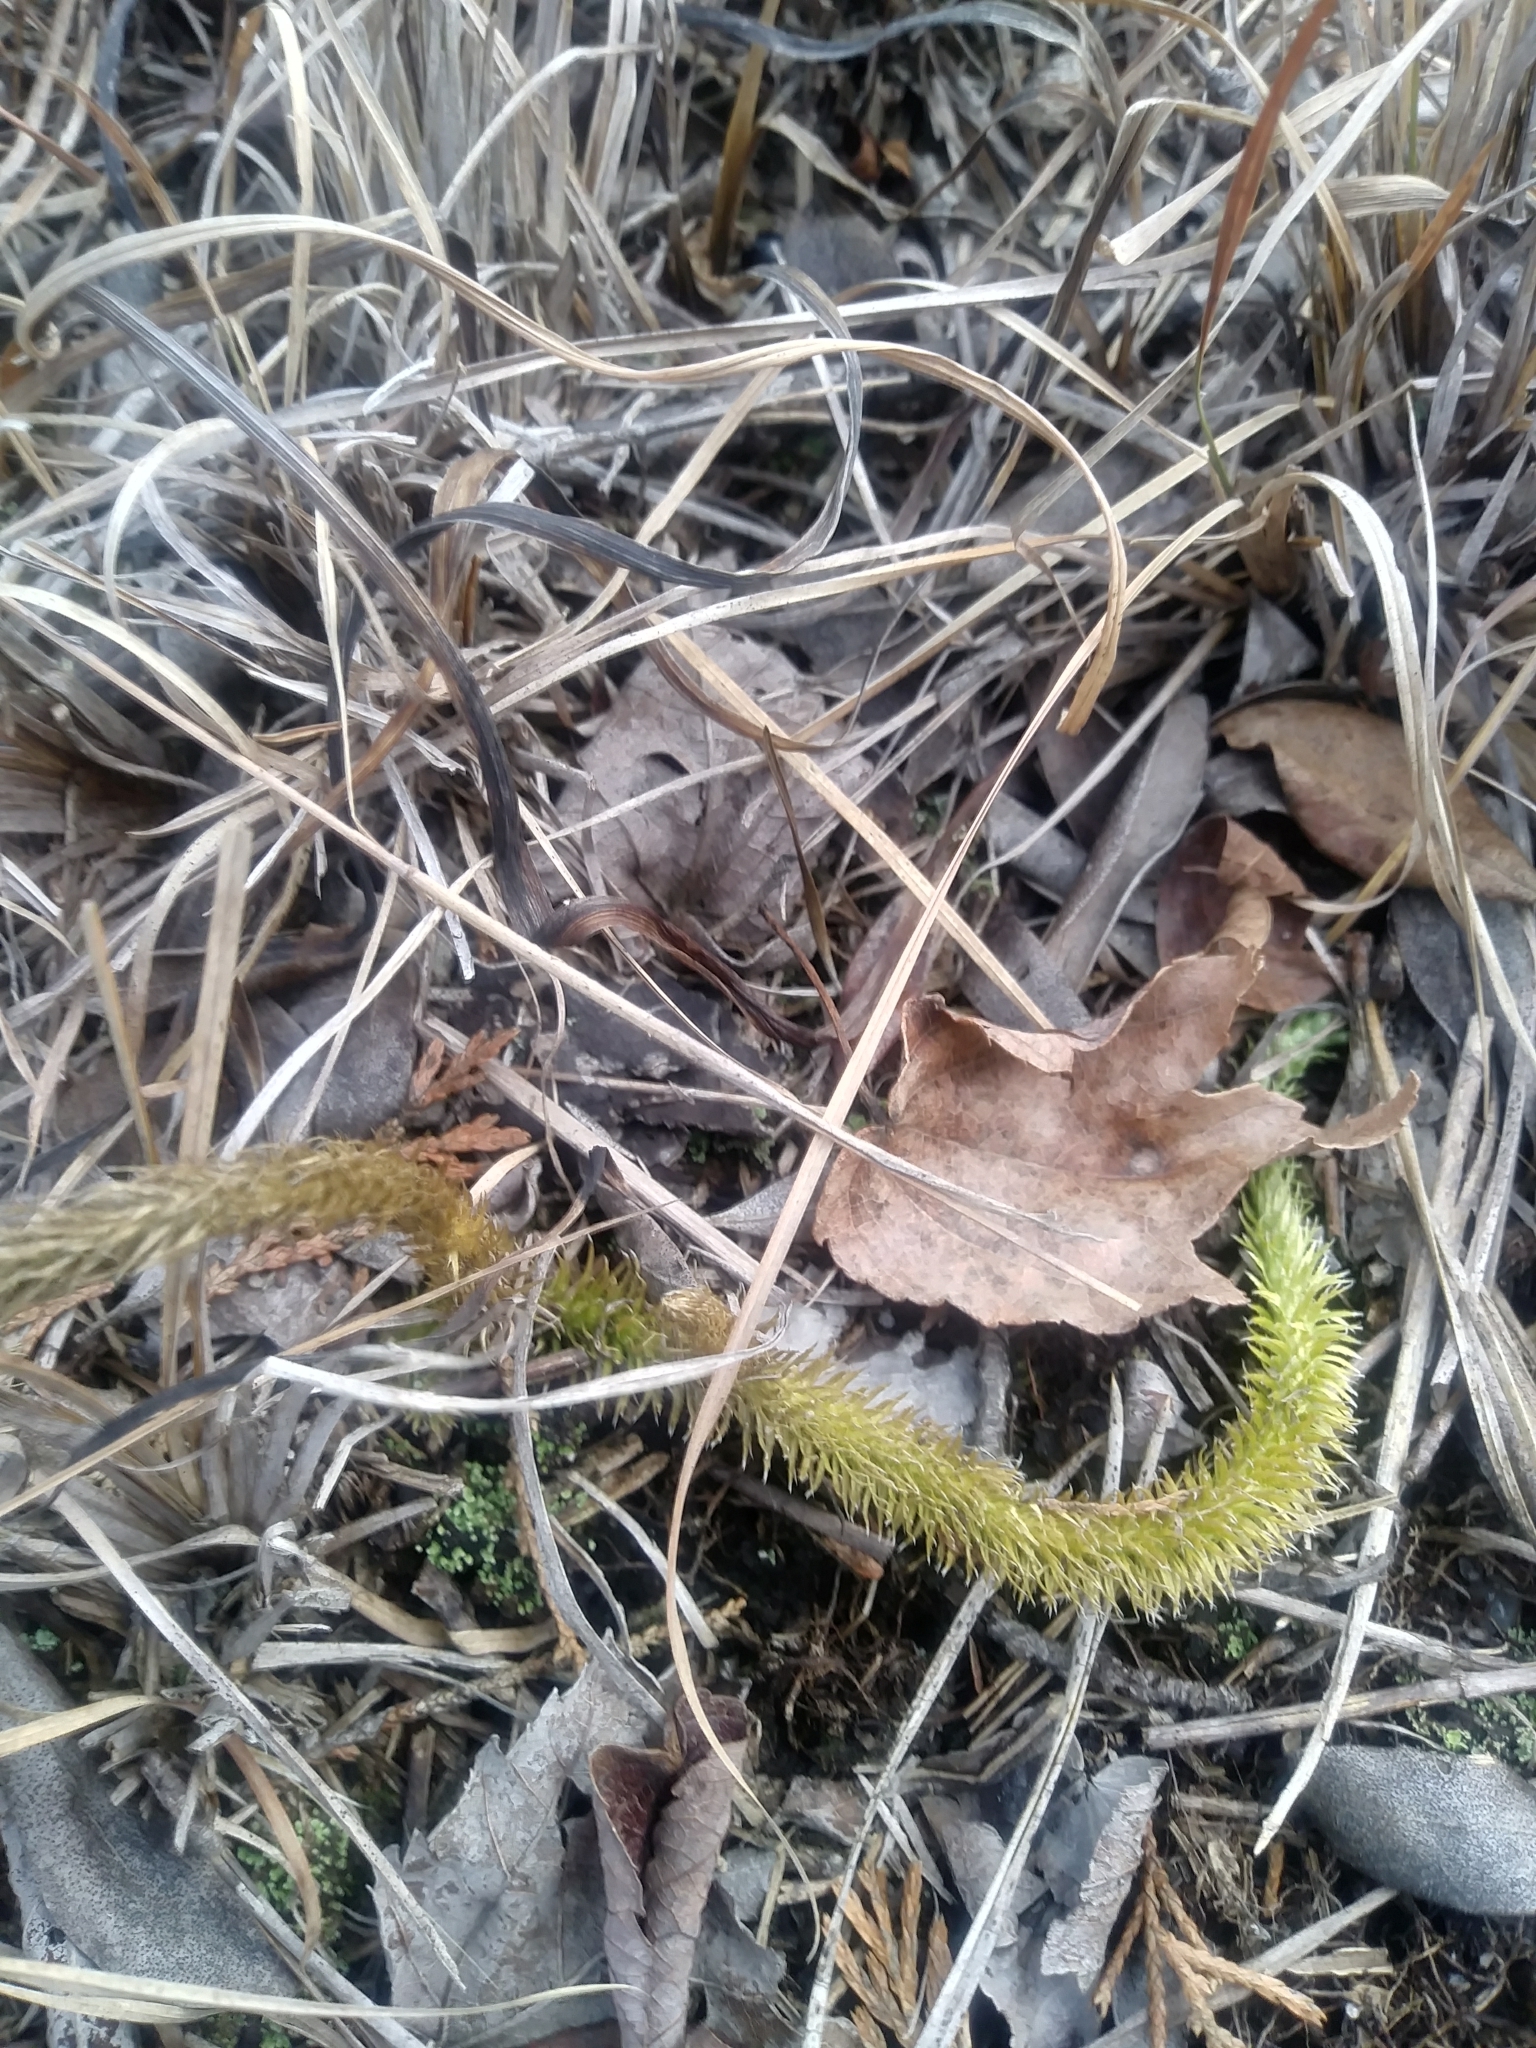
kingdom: Plantae
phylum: Tracheophyta
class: Lycopodiopsida
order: Lycopodiales
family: Lycopodiaceae
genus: Lycopodiella
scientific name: Lycopodiella alopecuroides
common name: Foxtail clubmoss
